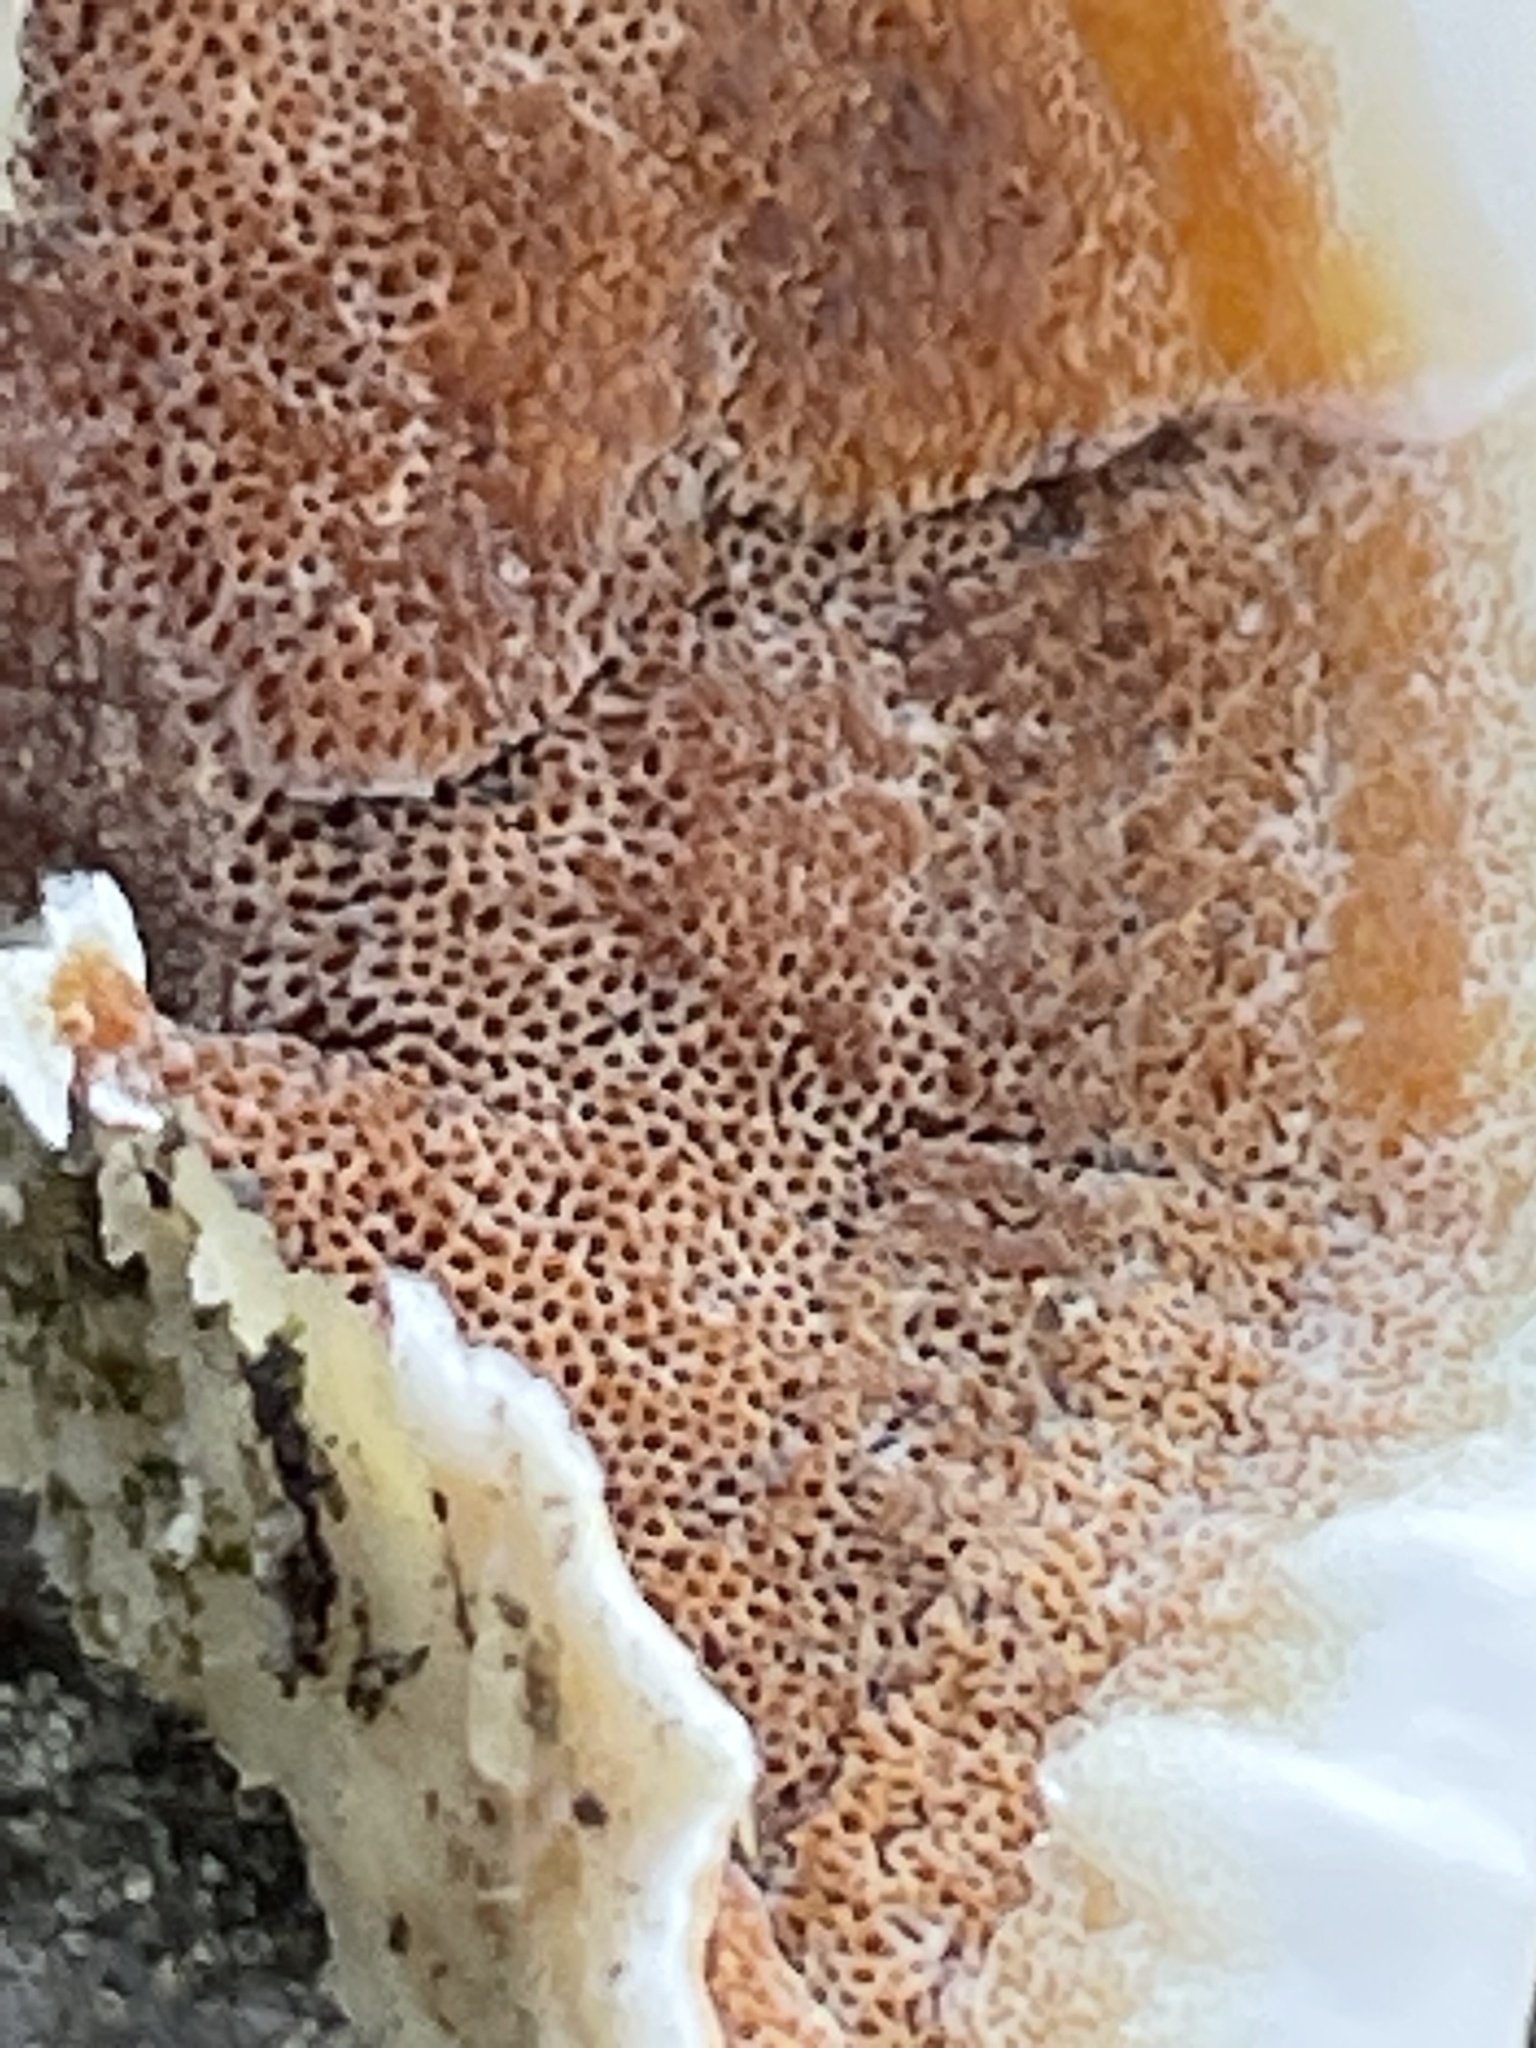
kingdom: Fungi
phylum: Basidiomycota
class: Agaricomycetes
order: Polyporales
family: Irpicaceae
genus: Vitreoporus
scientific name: Vitreoporus dichrous
